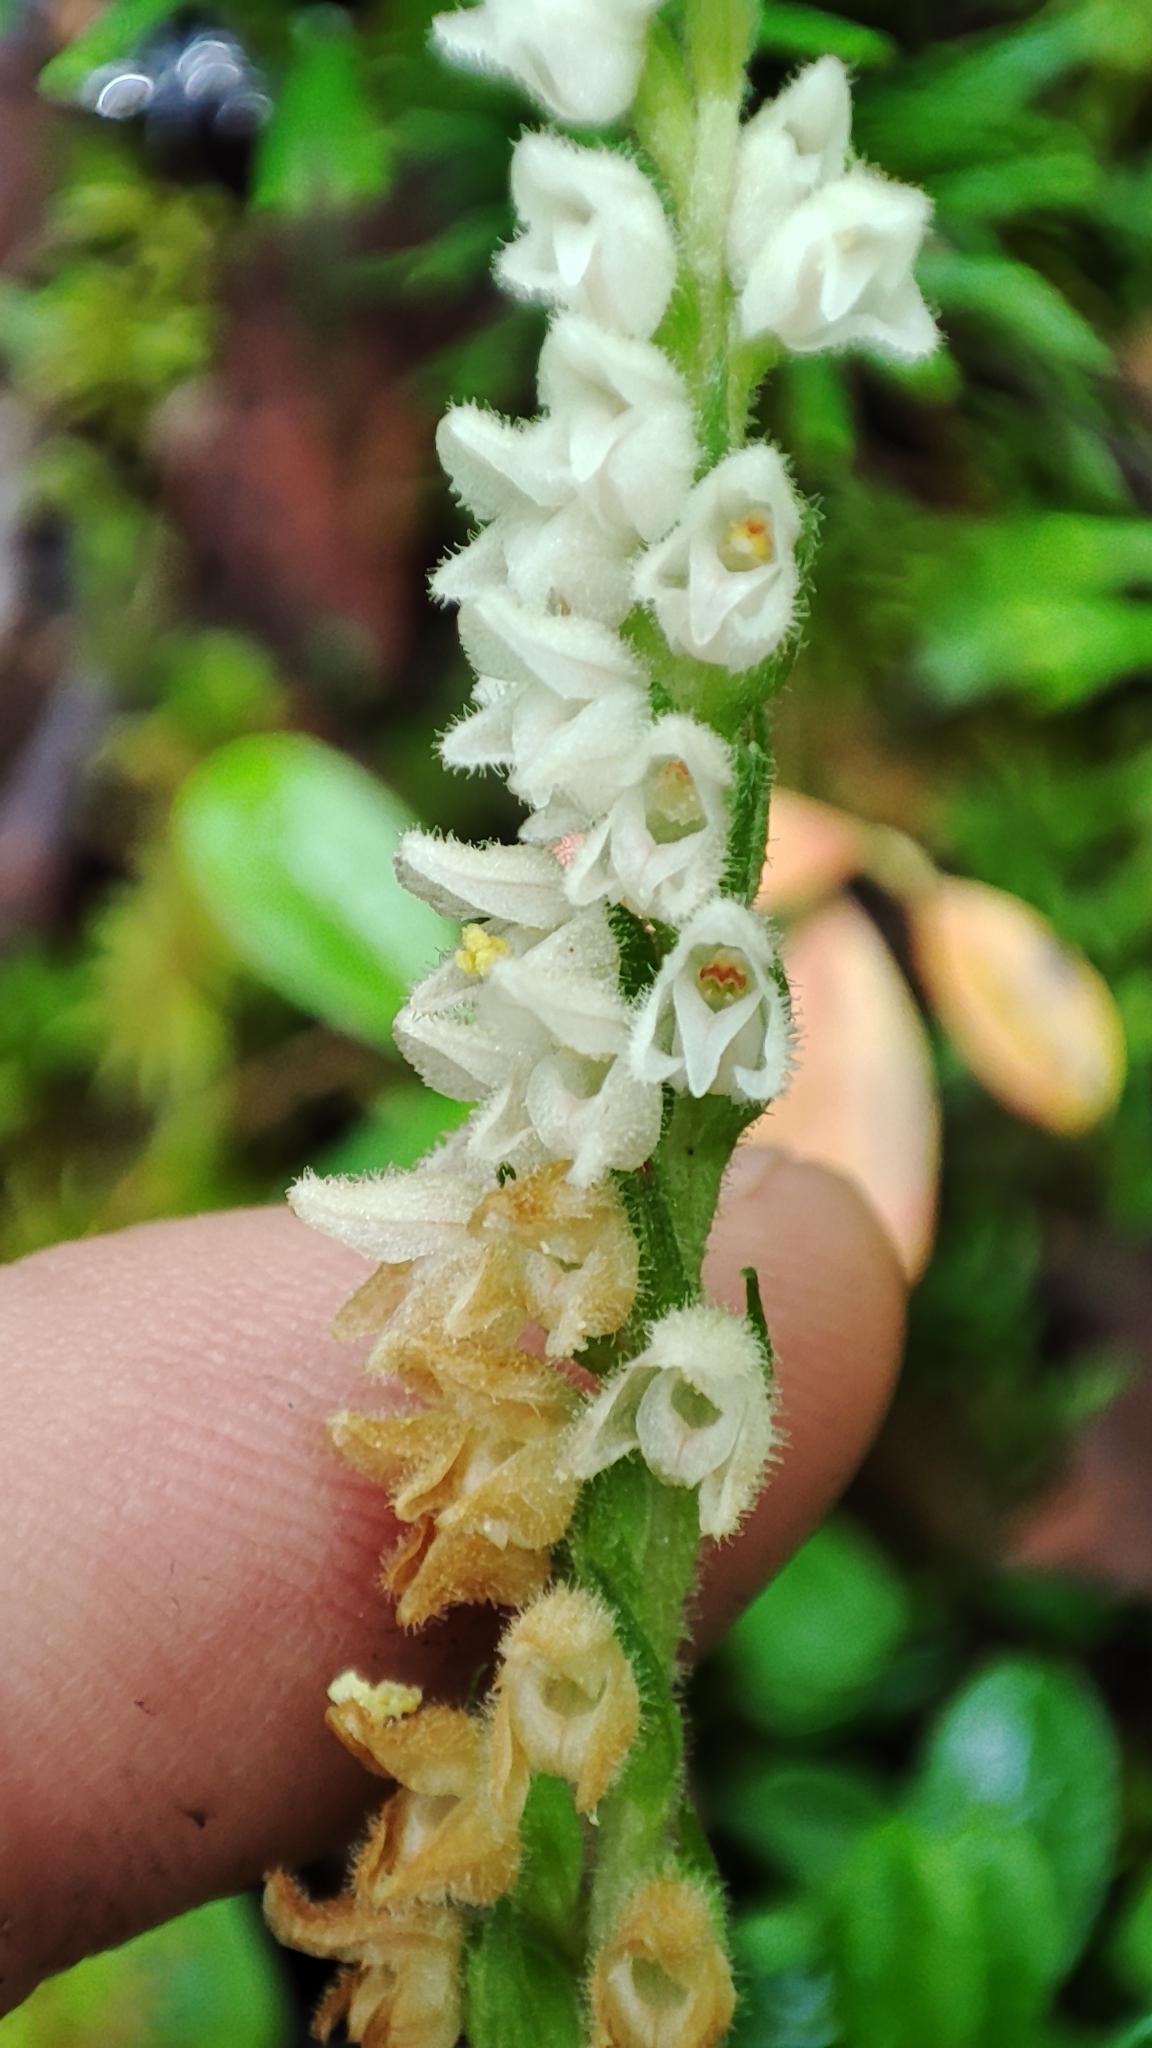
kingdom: Plantae
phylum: Tracheophyta
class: Liliopsida
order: Asparagales
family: Orchidaceae
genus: Goodyera
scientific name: Goodyera repens
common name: Creeping lady's-tresses
